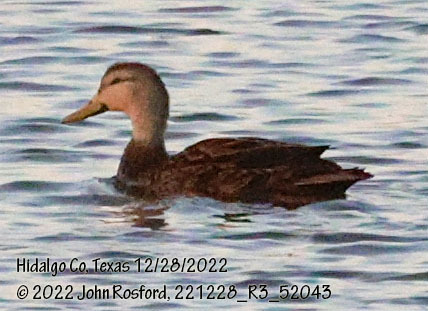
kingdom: Animalia
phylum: Chordata
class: Aves
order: Anseriformes
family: Anatidae
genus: Anas
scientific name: Anas fulvigula
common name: Mottled duck
